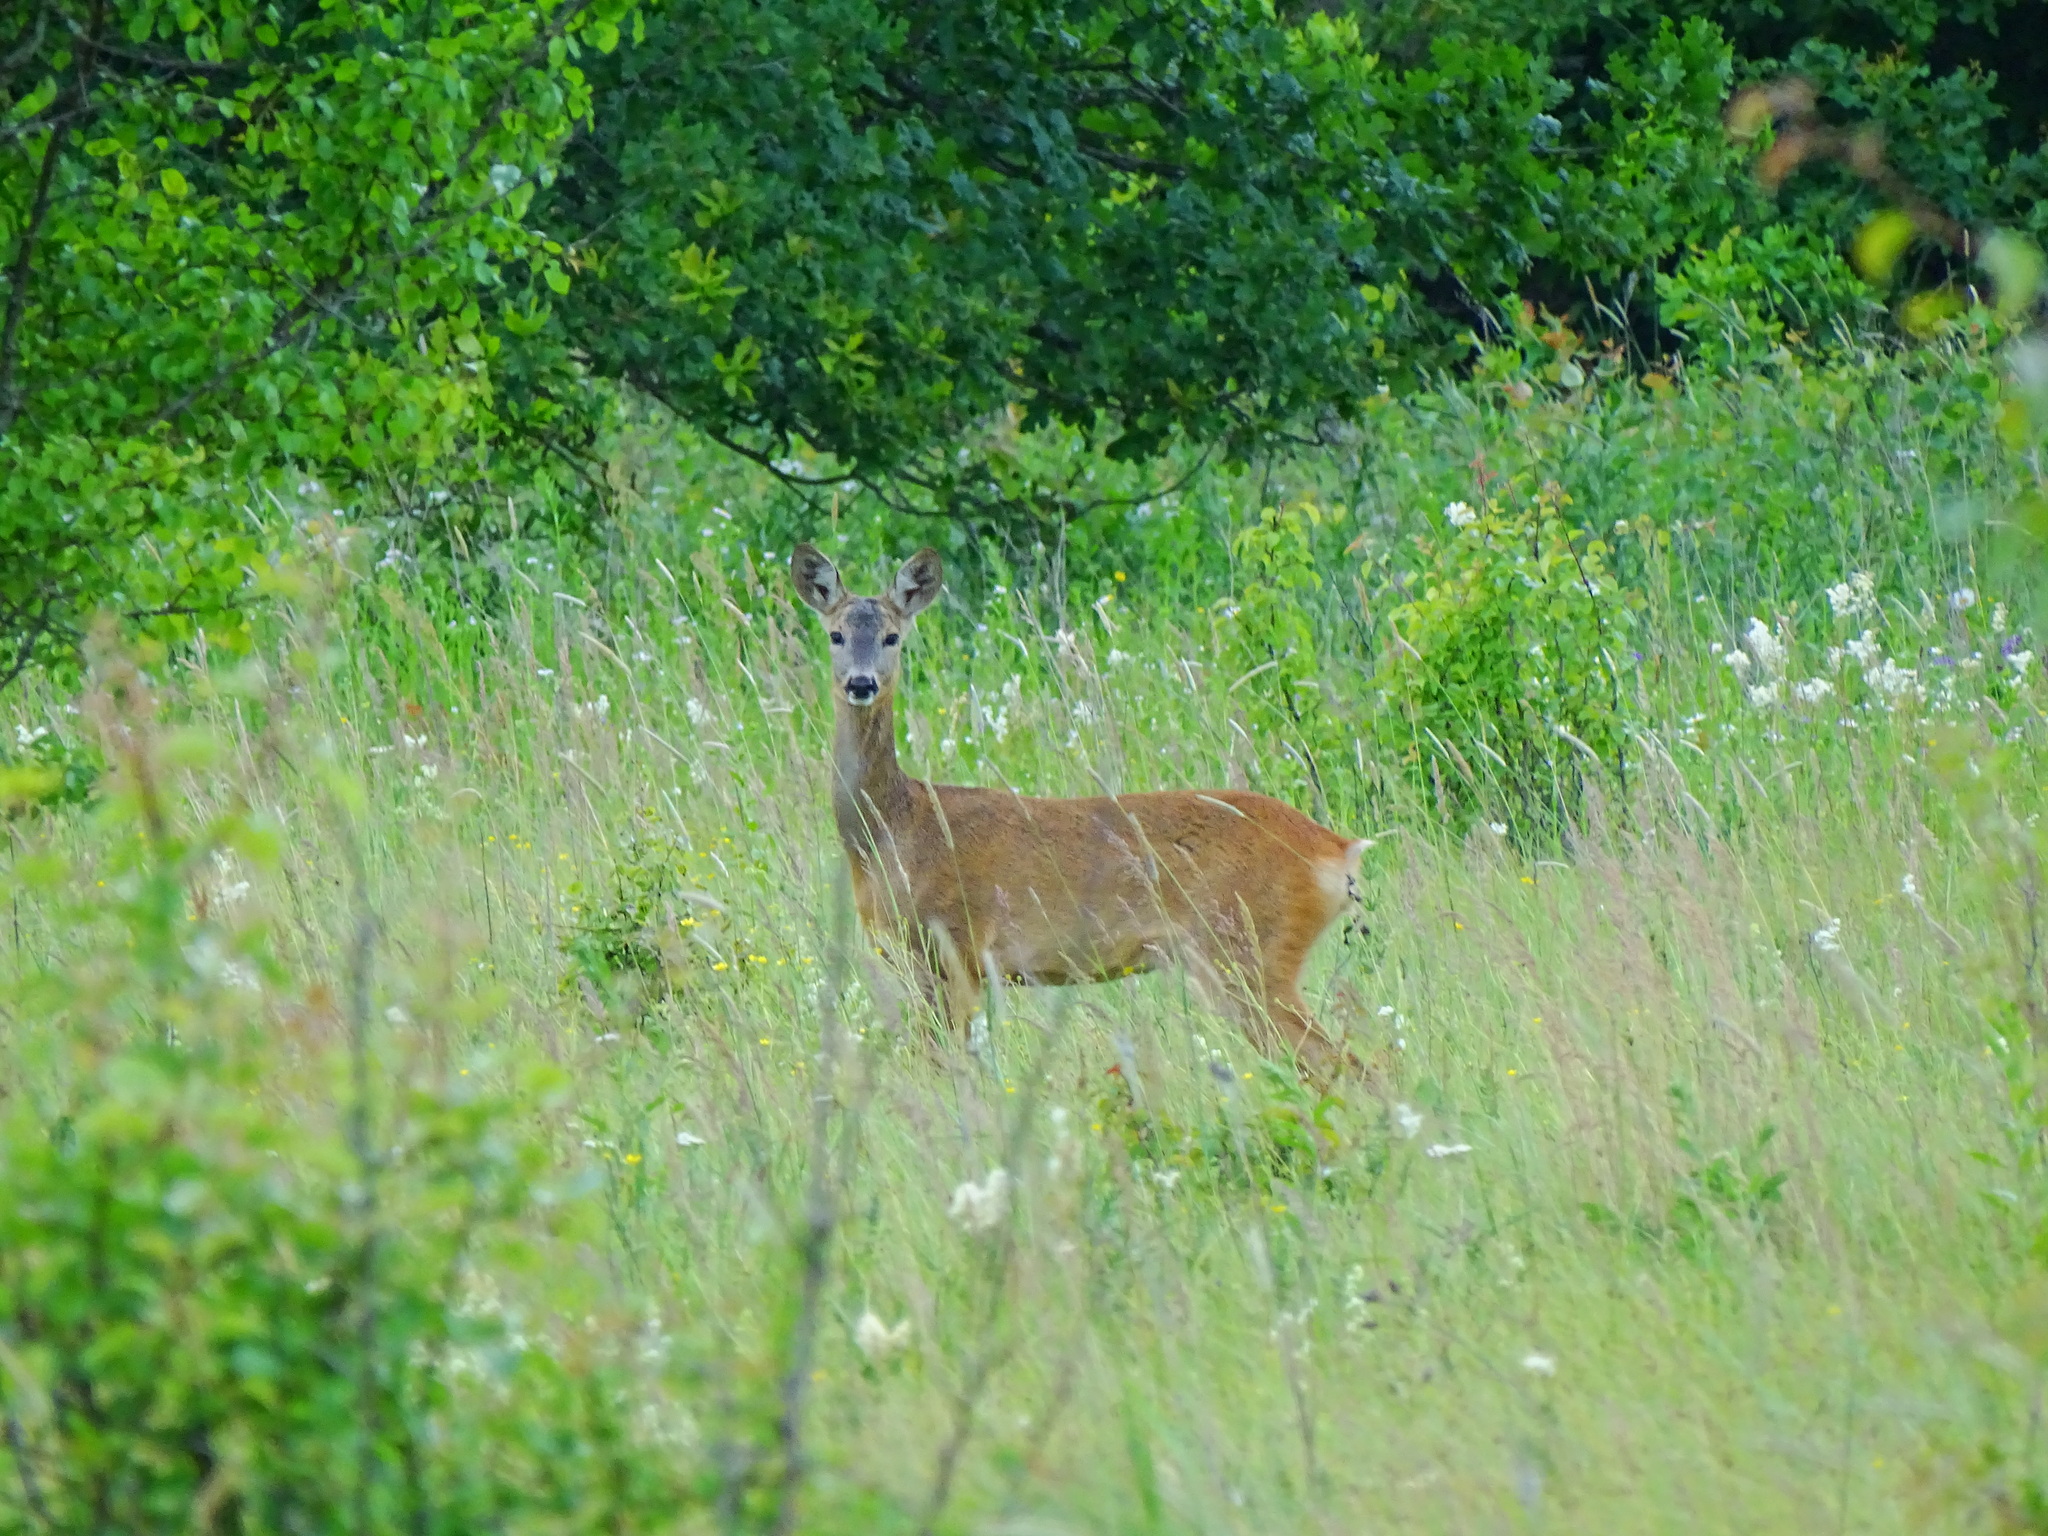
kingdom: Animalia
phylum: Chordata
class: Mammalia
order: Artiodactyla
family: Cervidae
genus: Capreolus
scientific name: Capreolus capreolus
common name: Western roe deer
